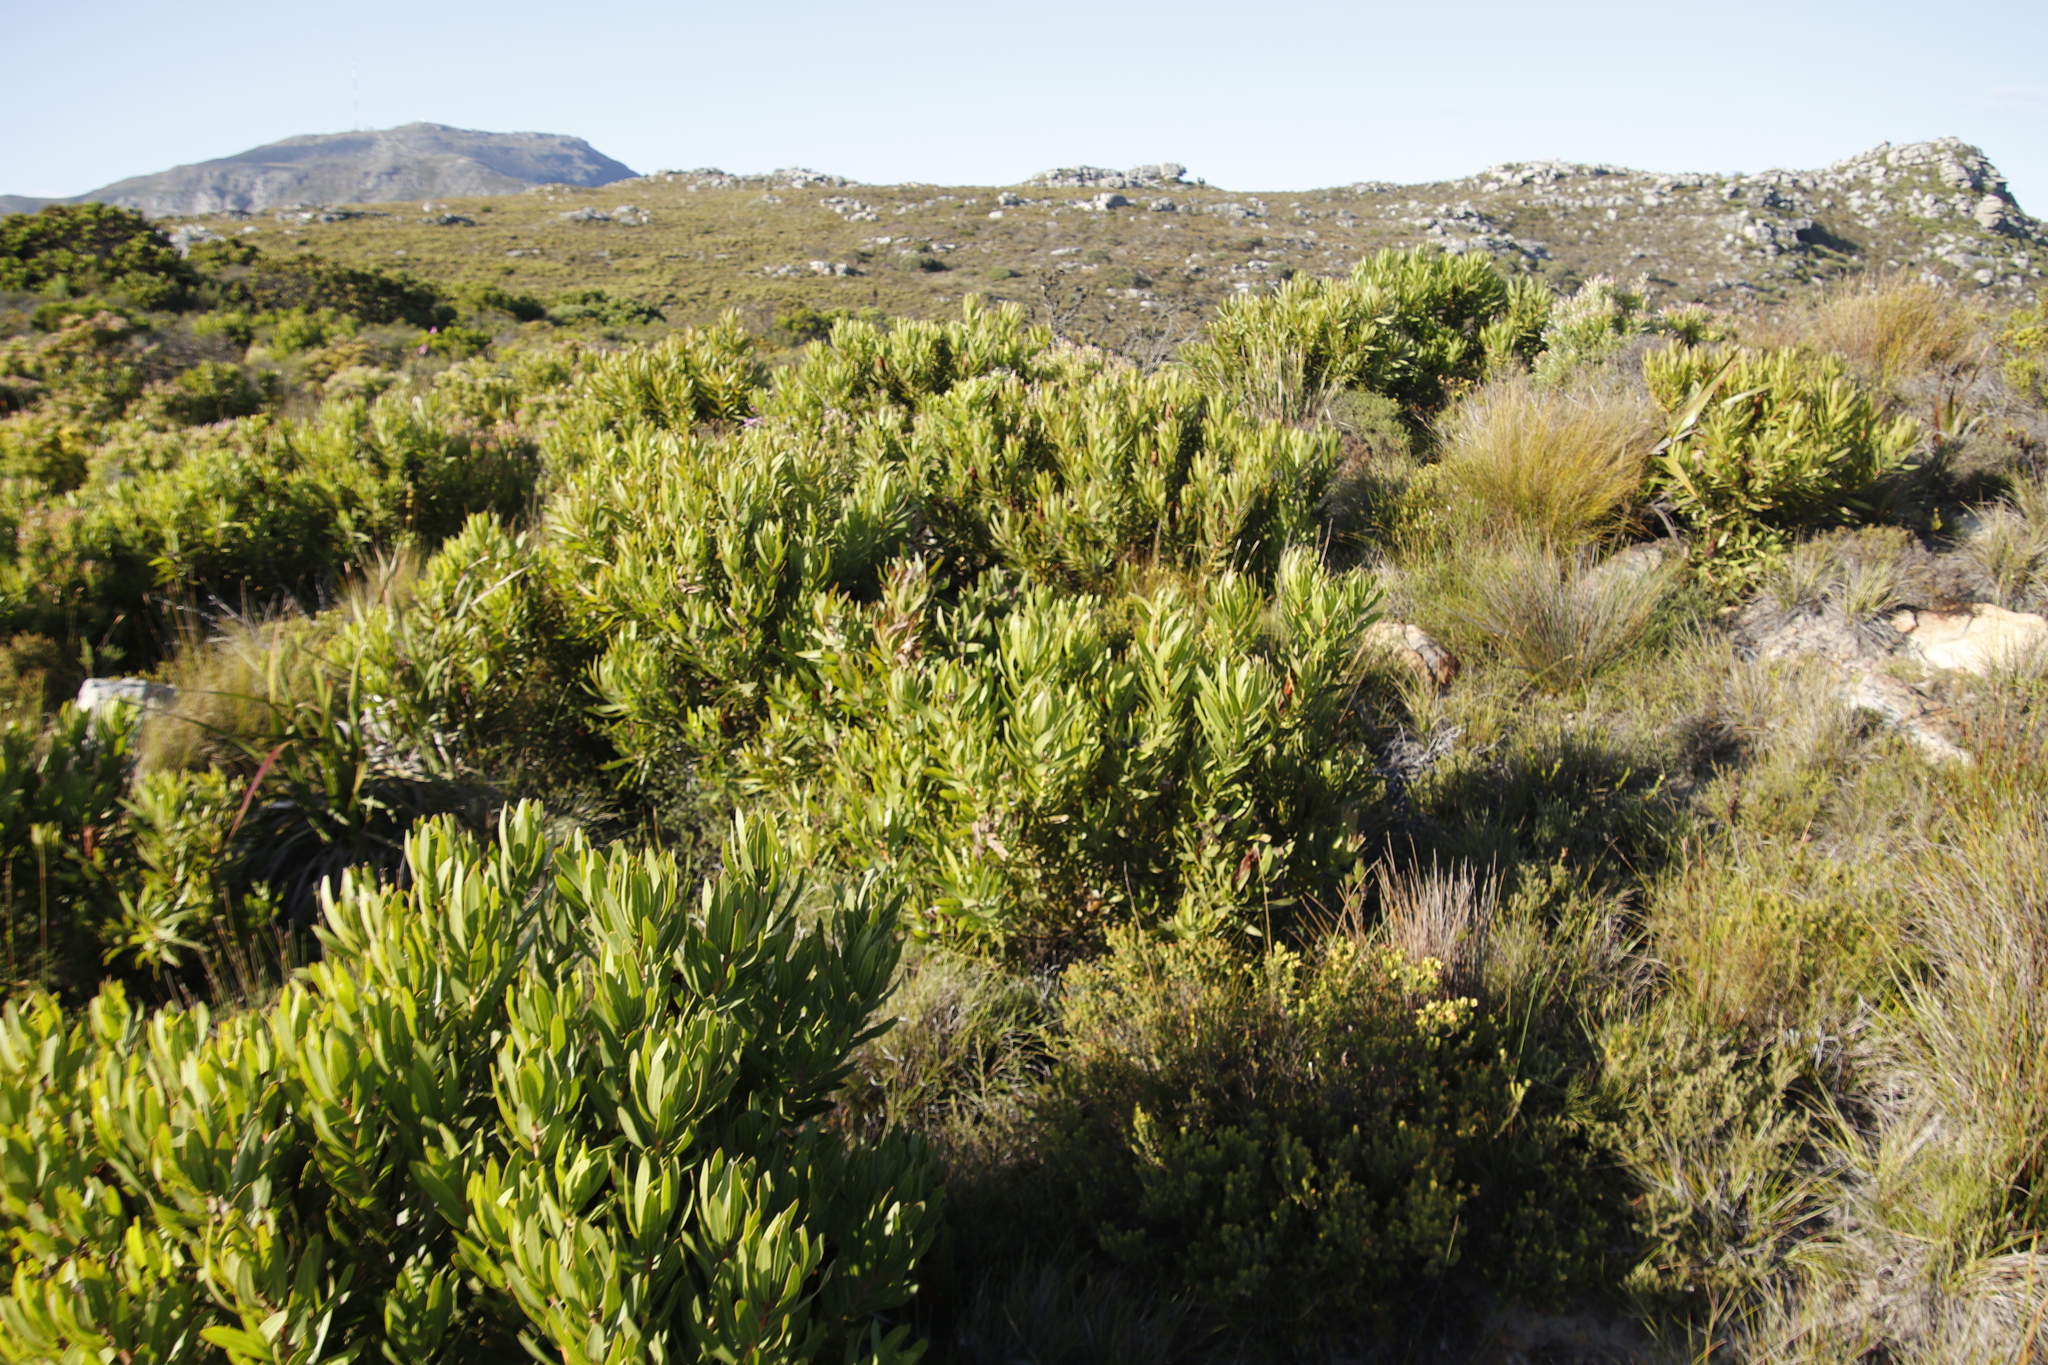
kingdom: Plantae
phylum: Tracheophyta
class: Magnoliopsida
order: Proteales
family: Proteaceae
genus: Protea
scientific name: Protea lepidocarpodendron
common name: Black-bearded protea
